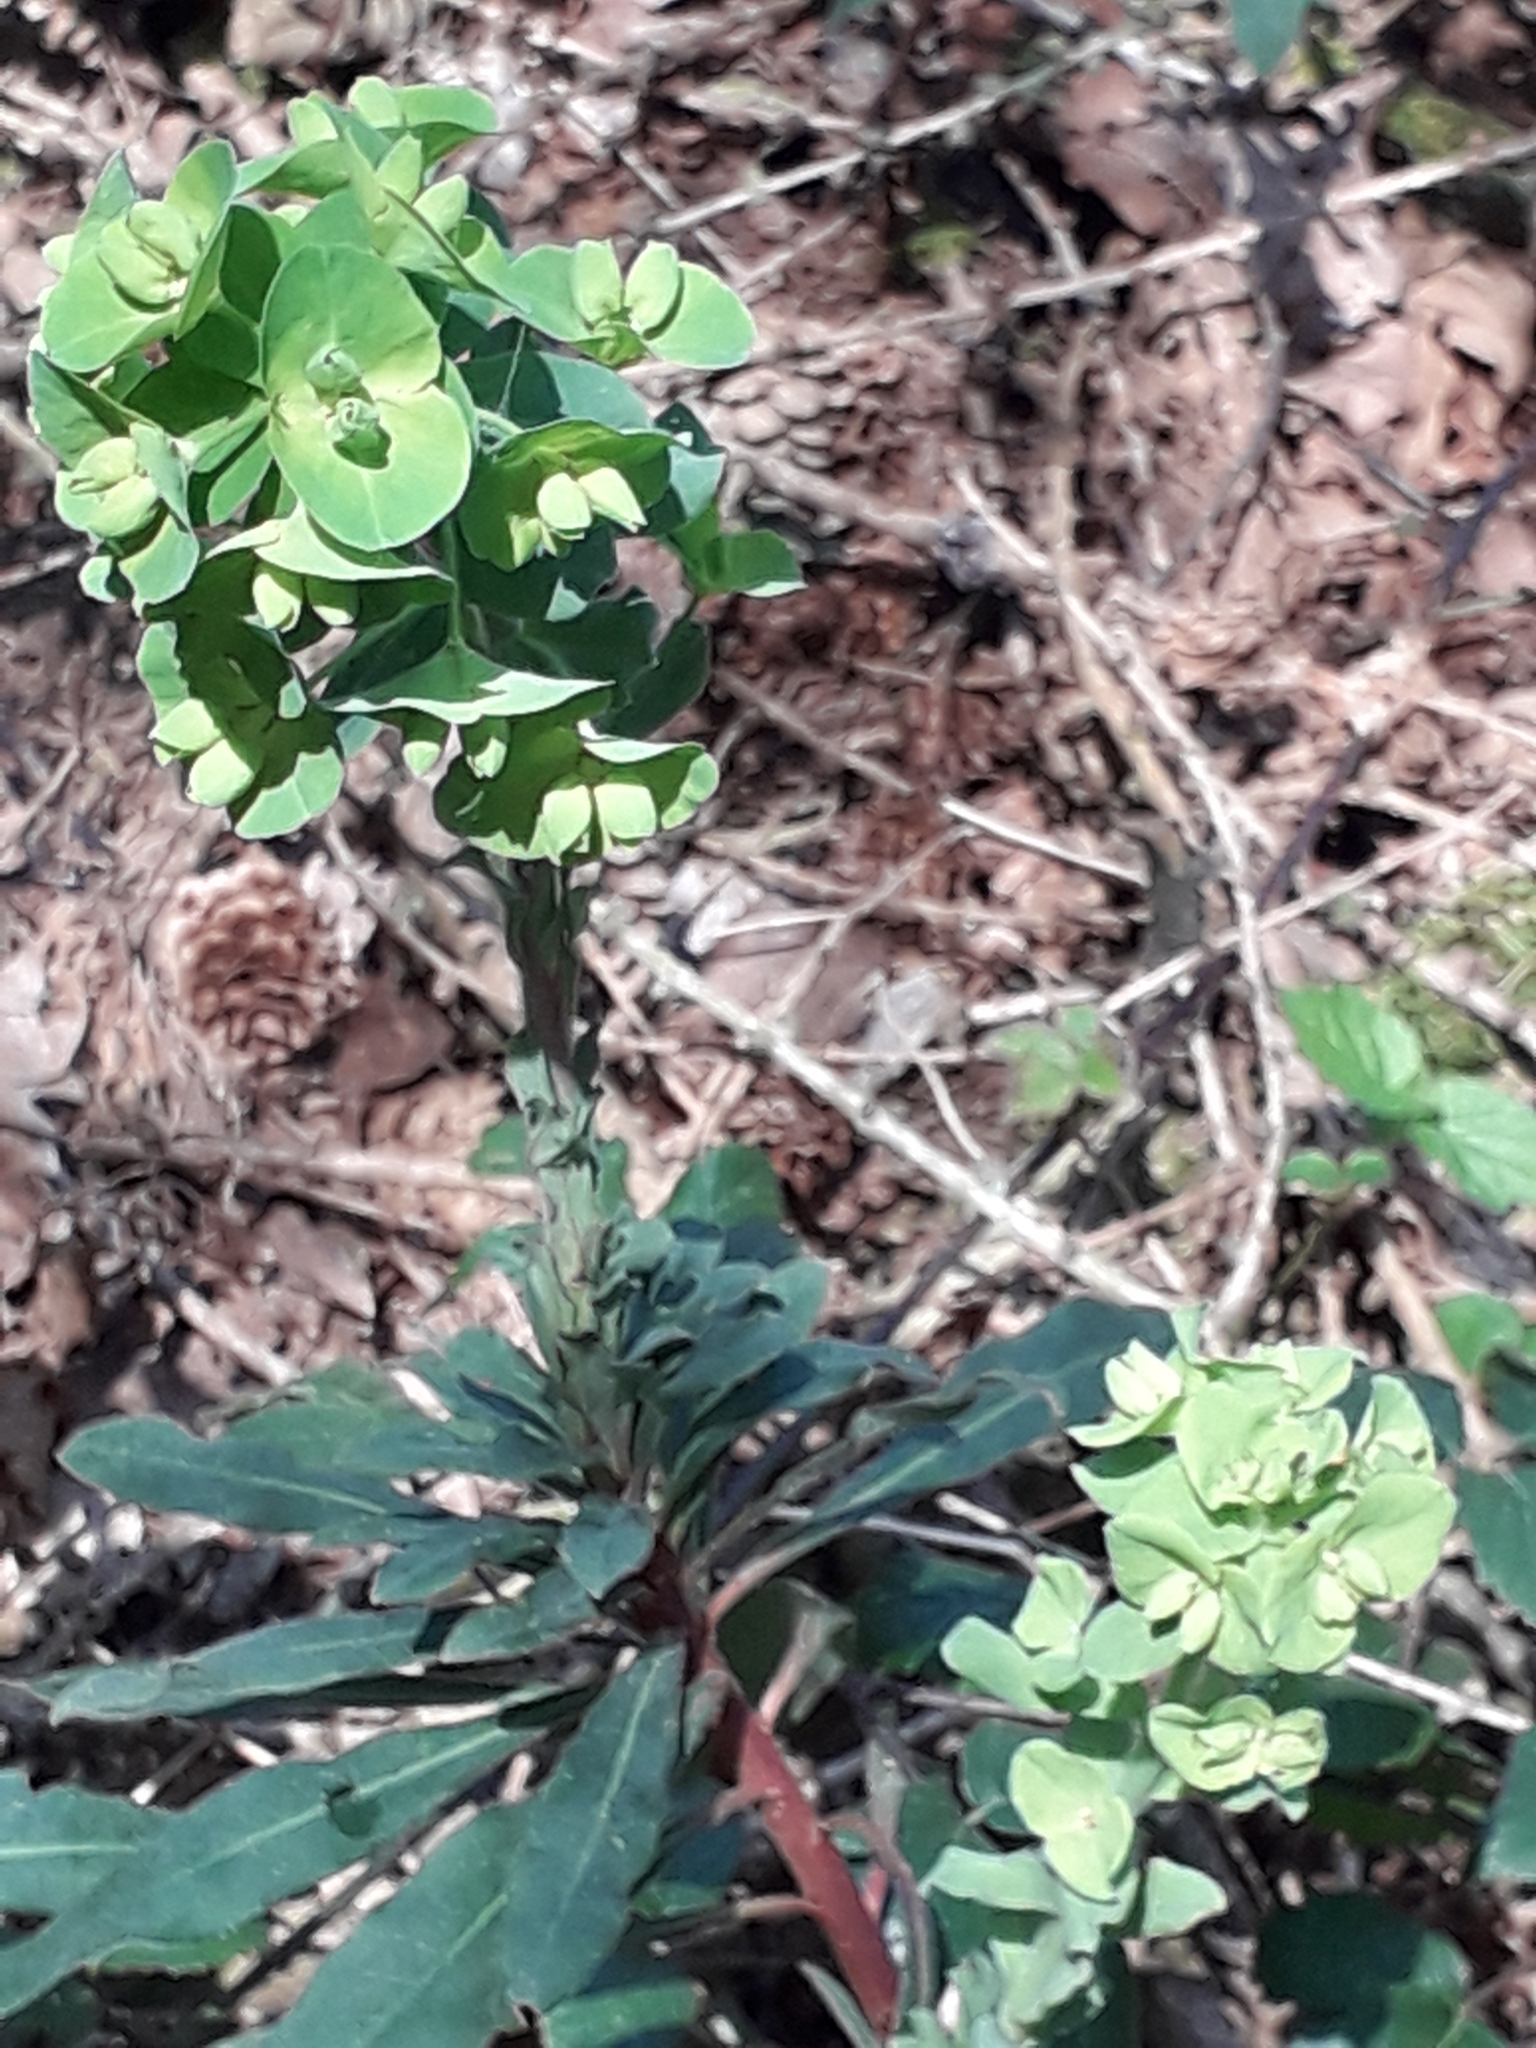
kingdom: Plantae
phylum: Tracheophyta
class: Magnoliopsida
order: Malpighiales
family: Euphorbiaceae
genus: Euphorbia
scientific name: Euphorbia amygdaloides
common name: Wood spurge
